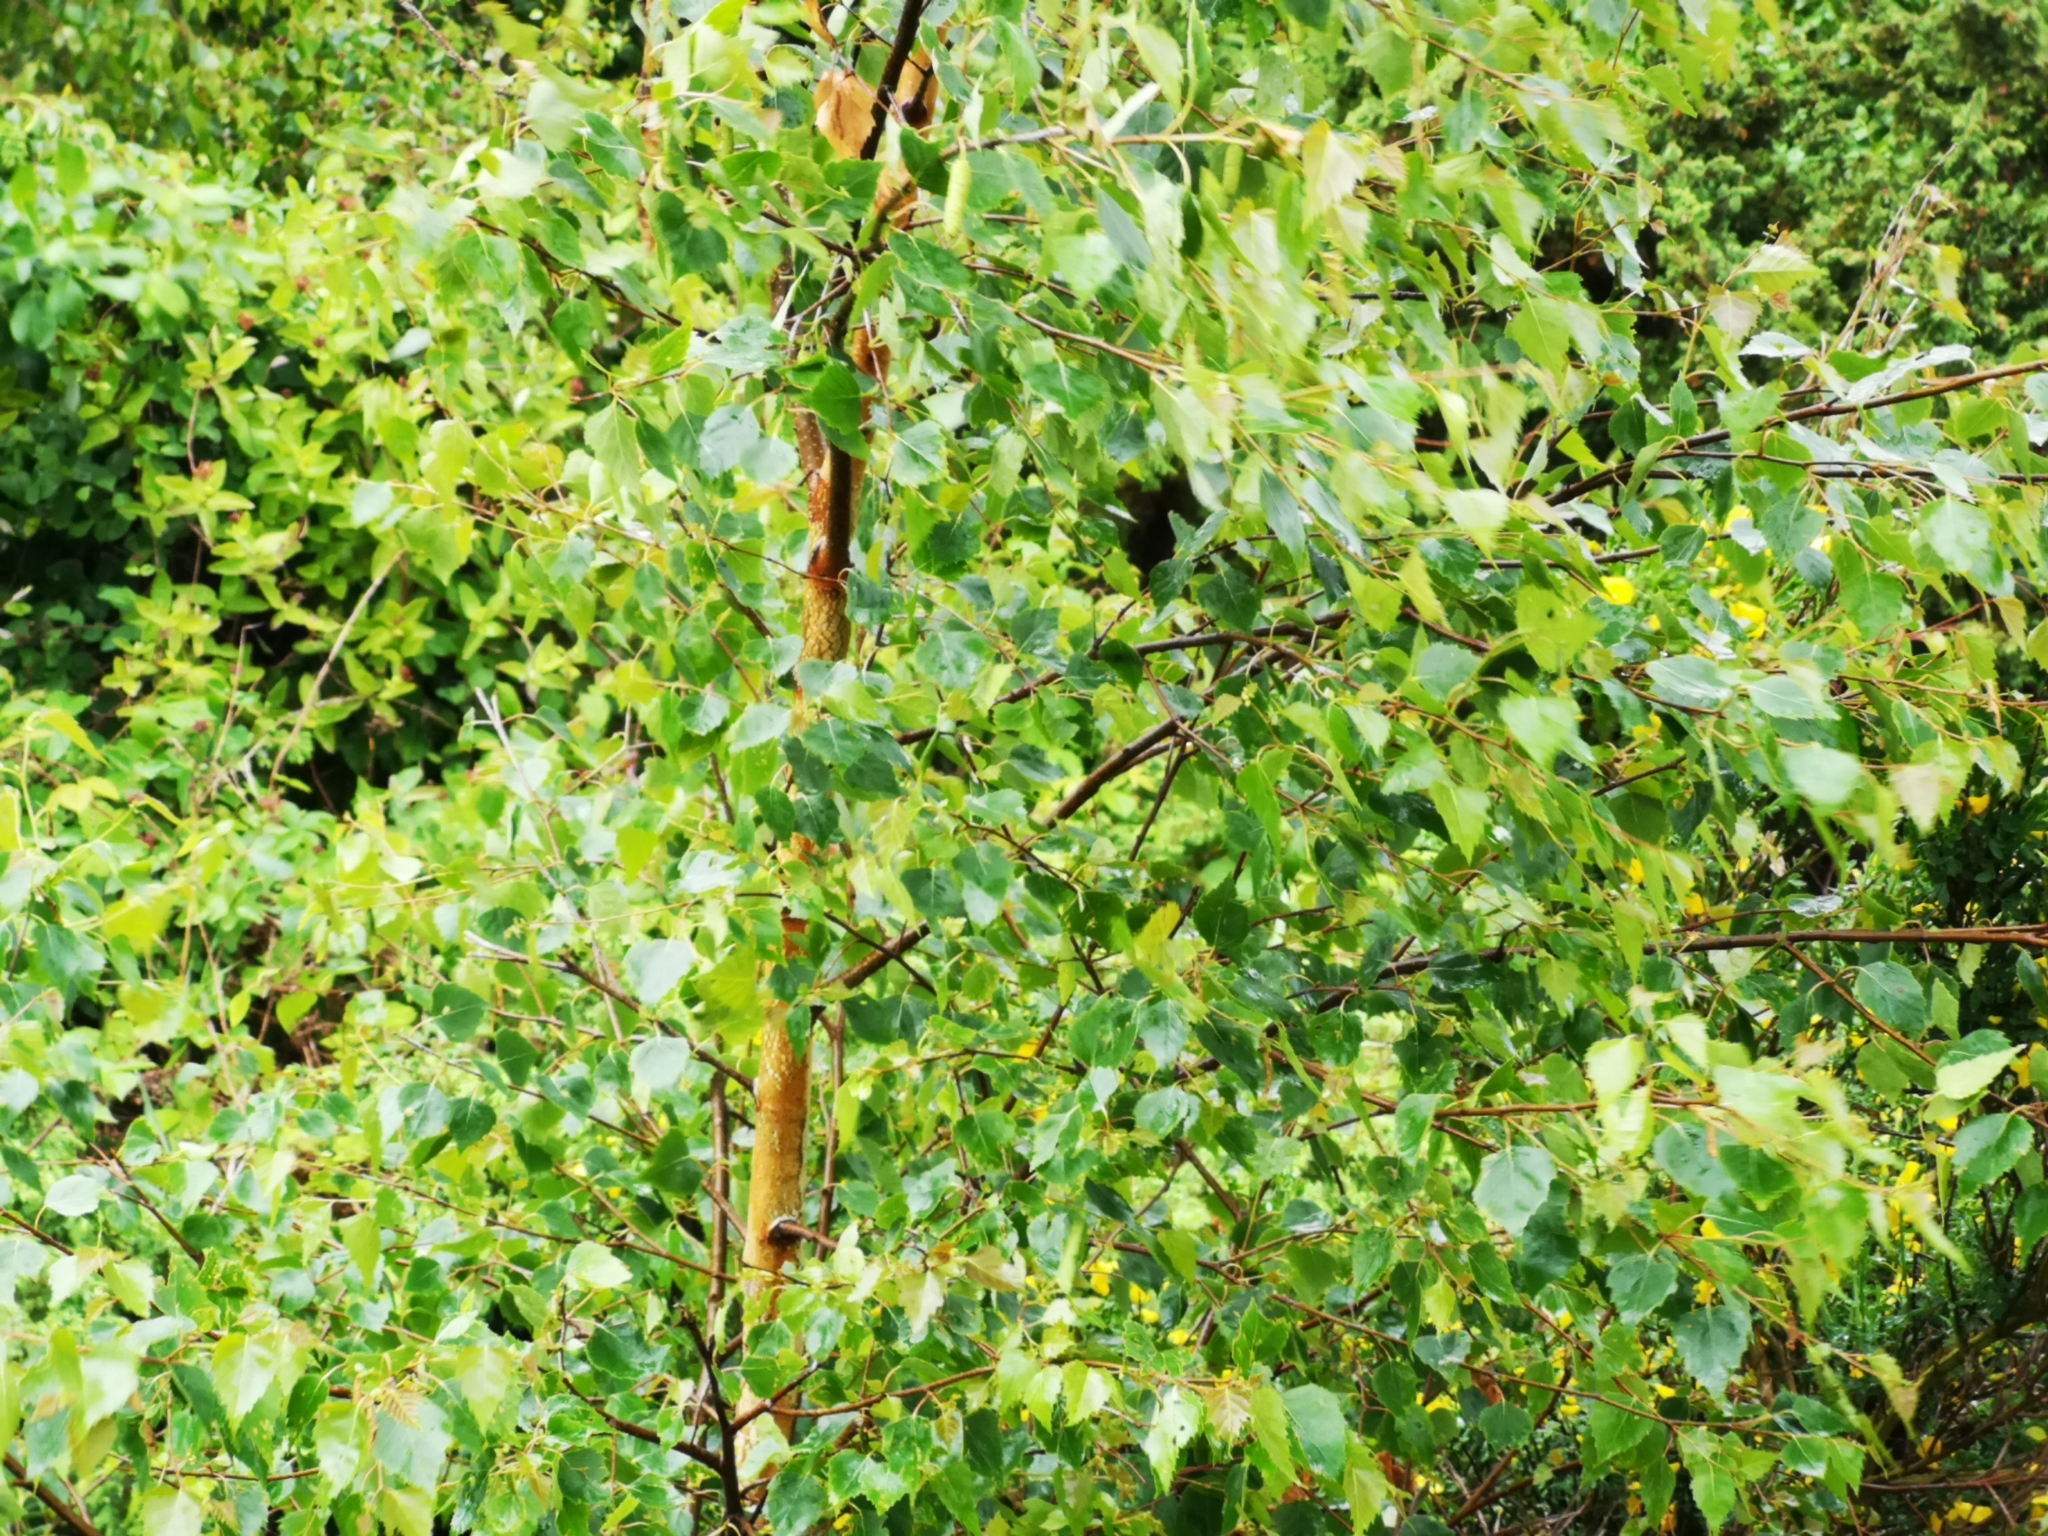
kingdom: Plantae
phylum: Tracheophyta
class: Magnoliopsida
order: Fagales
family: Betulaceae
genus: Betula
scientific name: Betula pendula
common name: Silver birch
